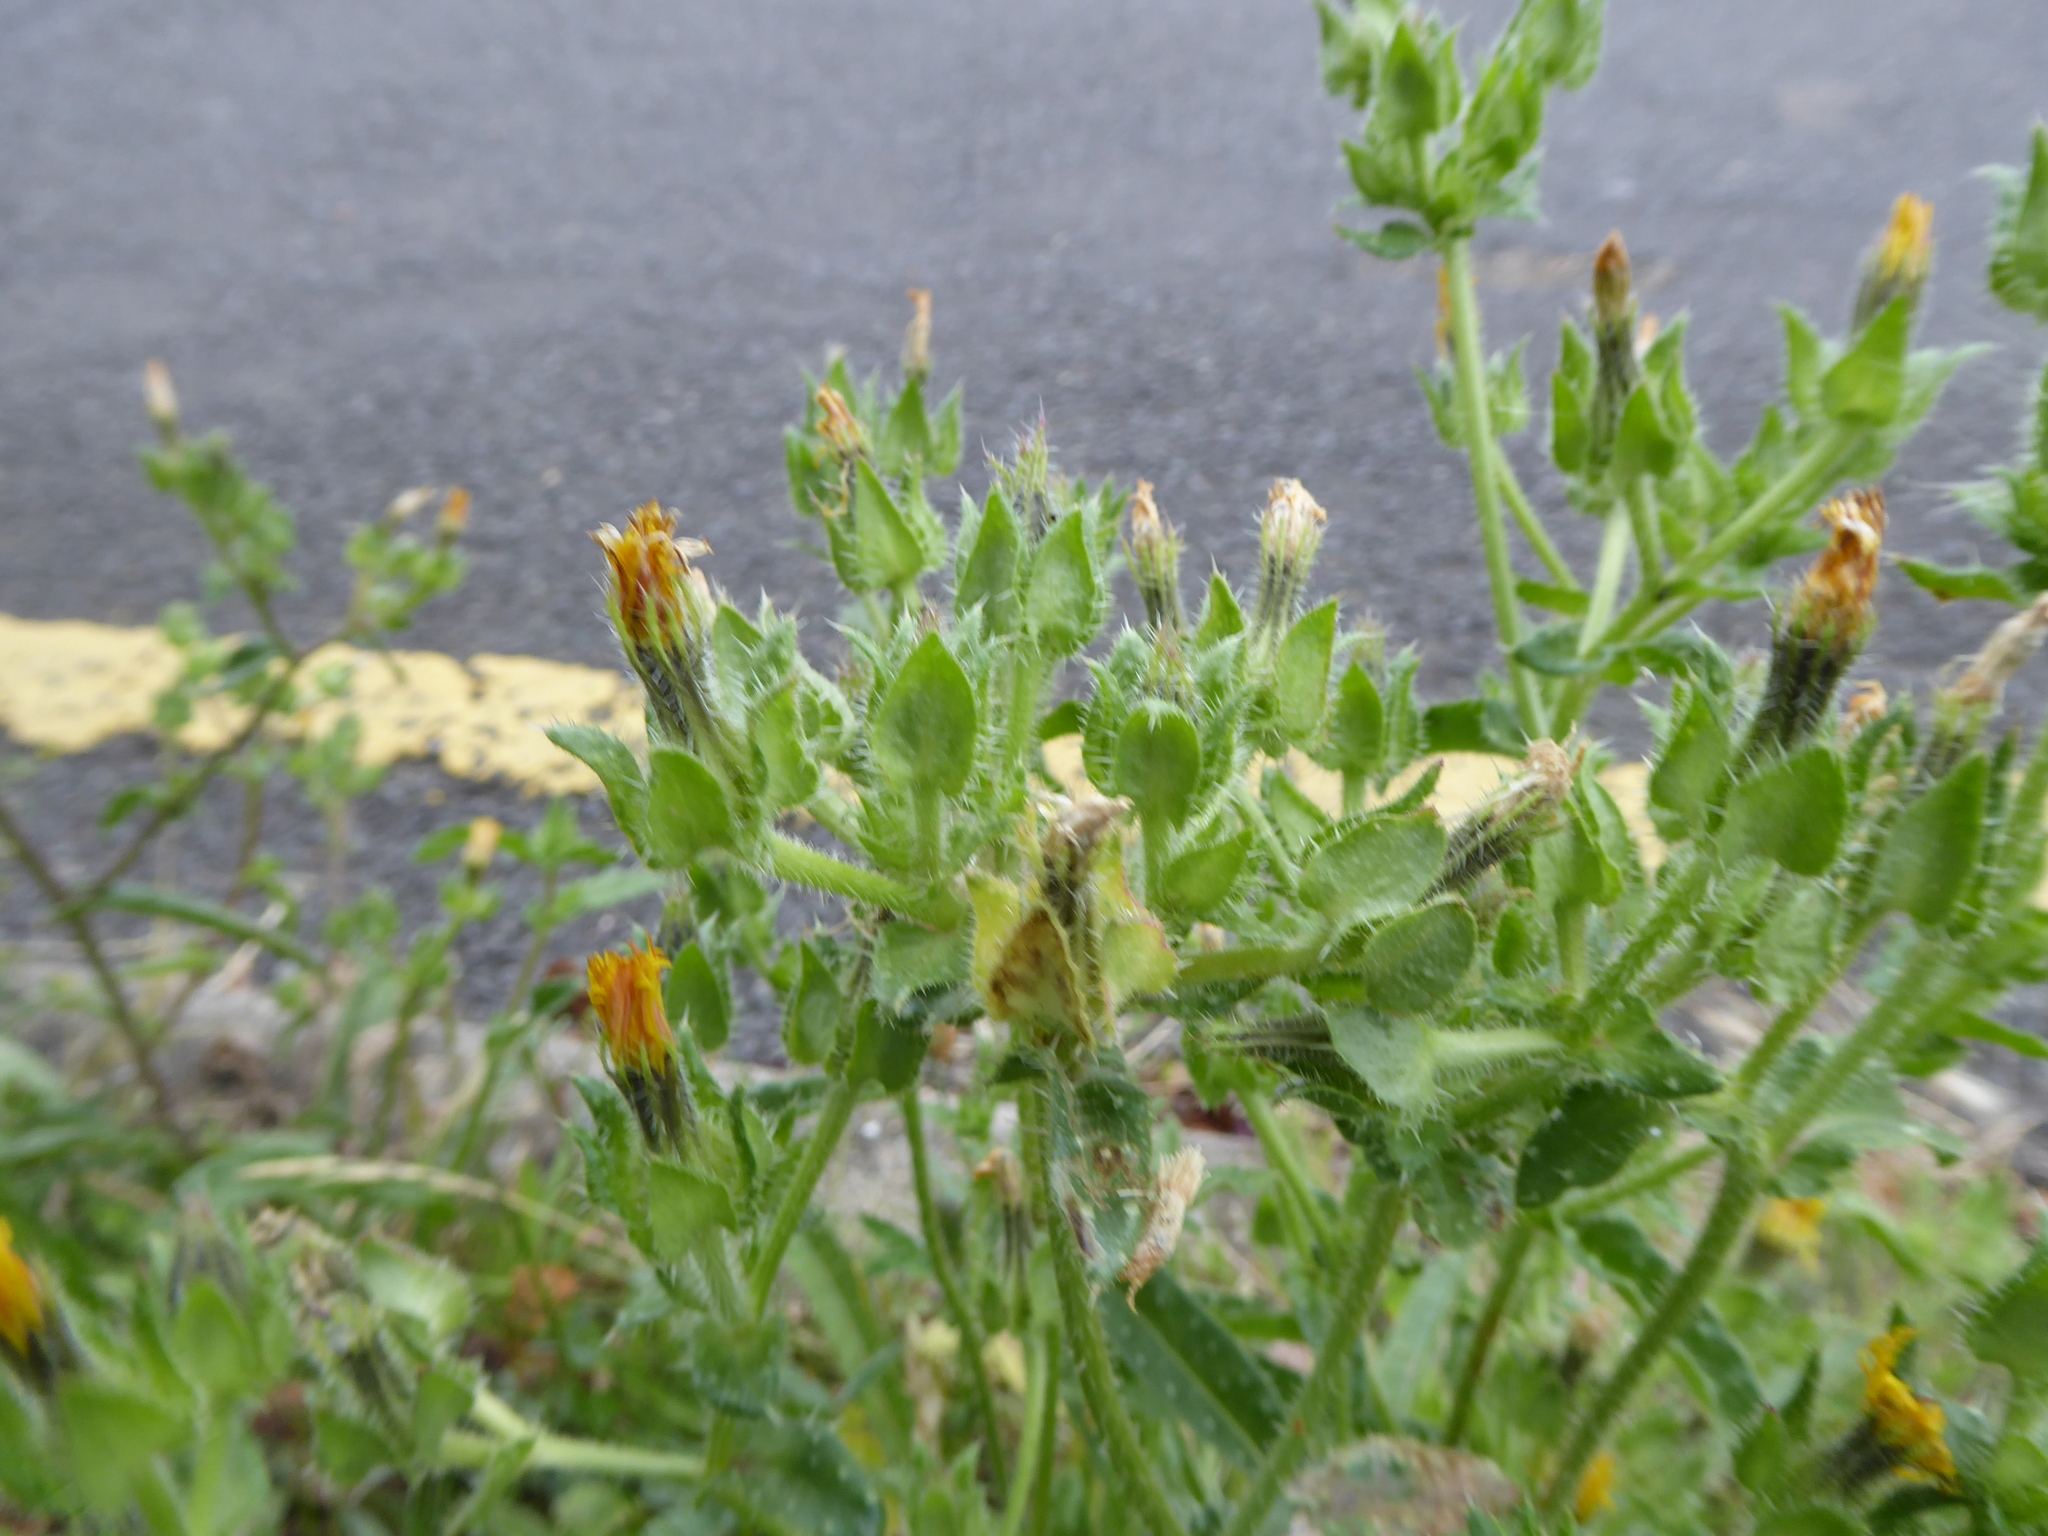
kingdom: Plantae
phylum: Tracheophyta
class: Magnoliopsida
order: Asterales
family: Asteraceae
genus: Helminthotheca
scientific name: Helminthotheca echioides
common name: Ox-tongue
